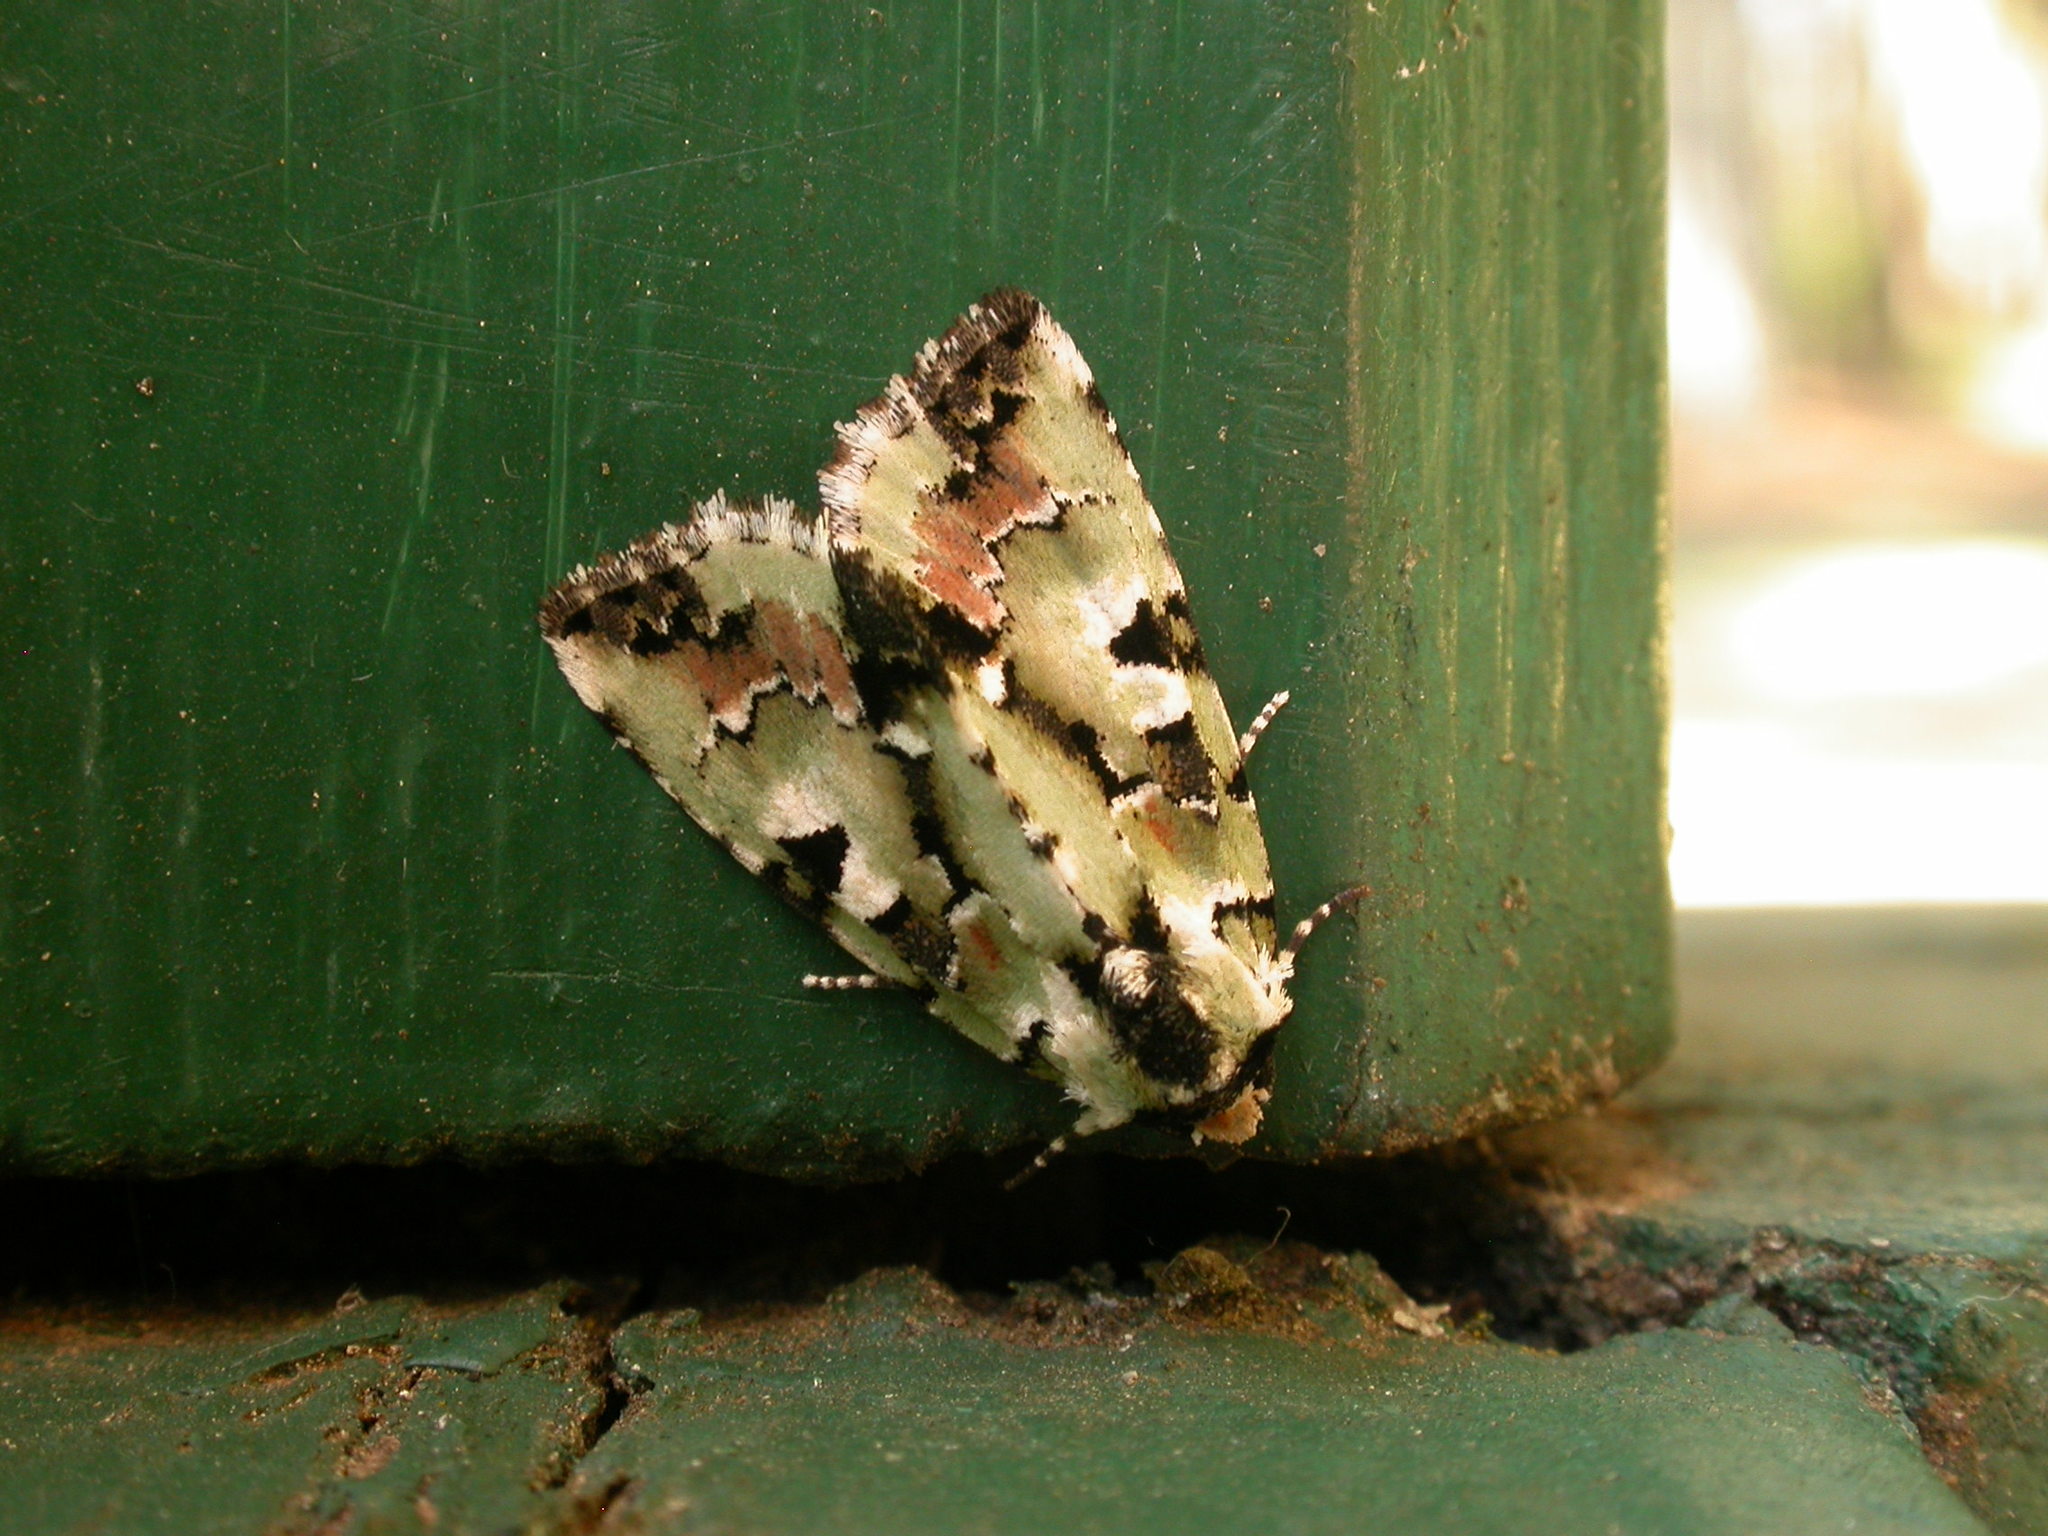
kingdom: Animalia
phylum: Arthropoda
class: Insecta
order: Lepidoptera
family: Noctuidae
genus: Epicyrtica
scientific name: Epicyrtica metallica
